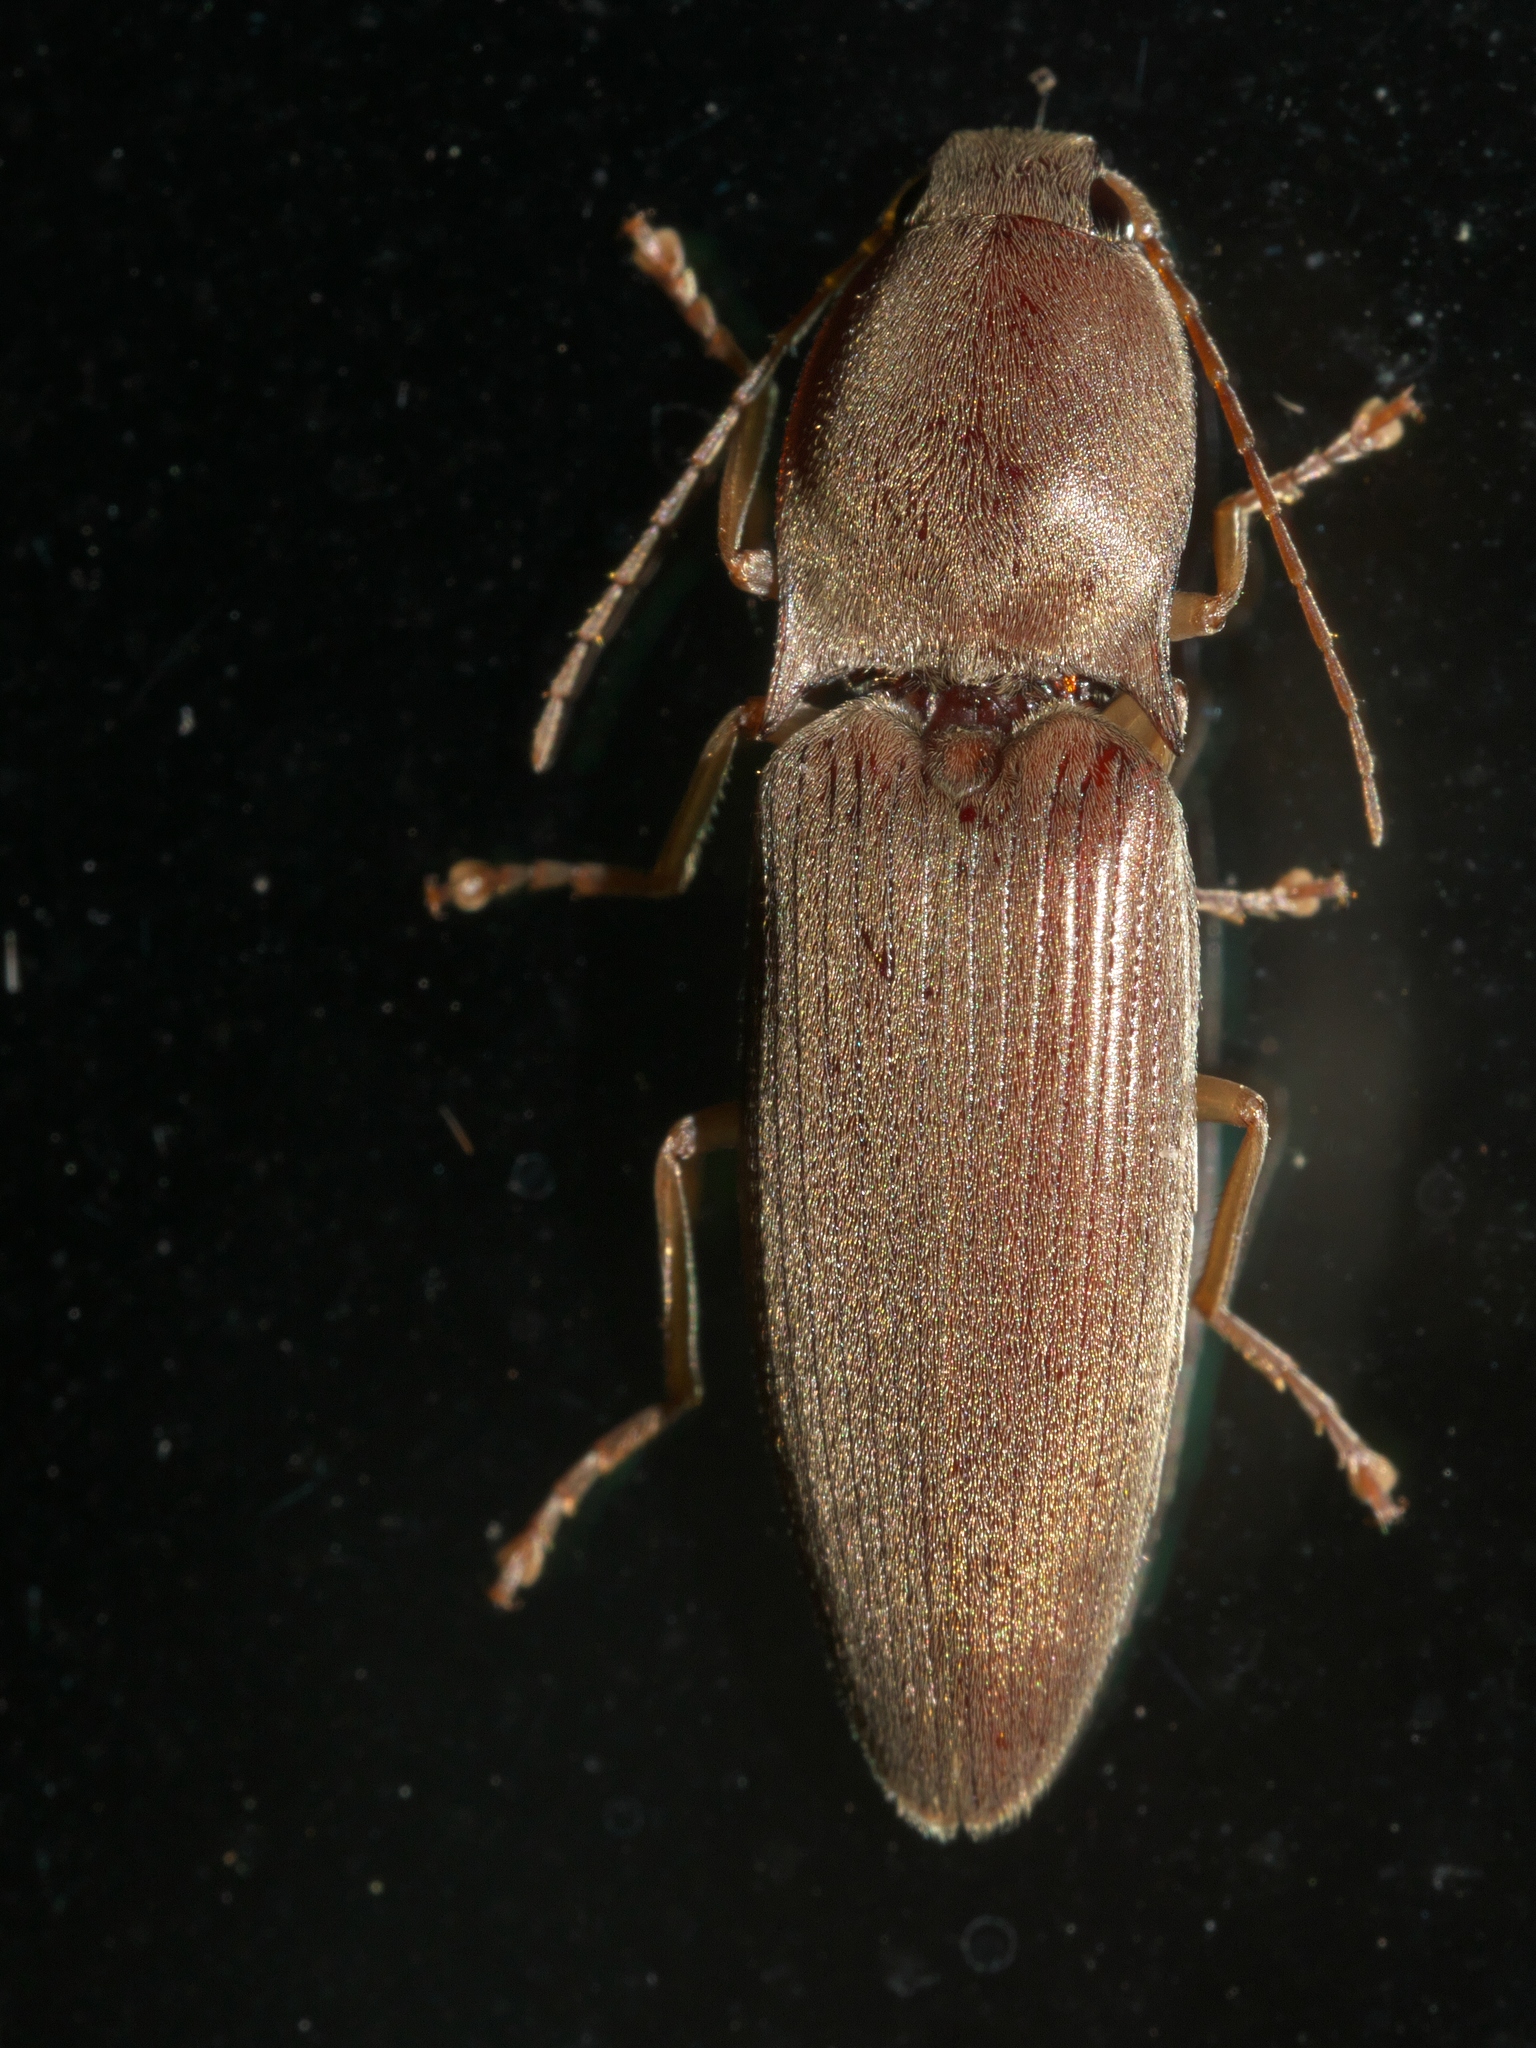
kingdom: Animalia
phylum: Arthropoda
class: Insecta
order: Coleoptera
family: Elateridae
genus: Monocrepidius
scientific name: Monocrepidius lividus
